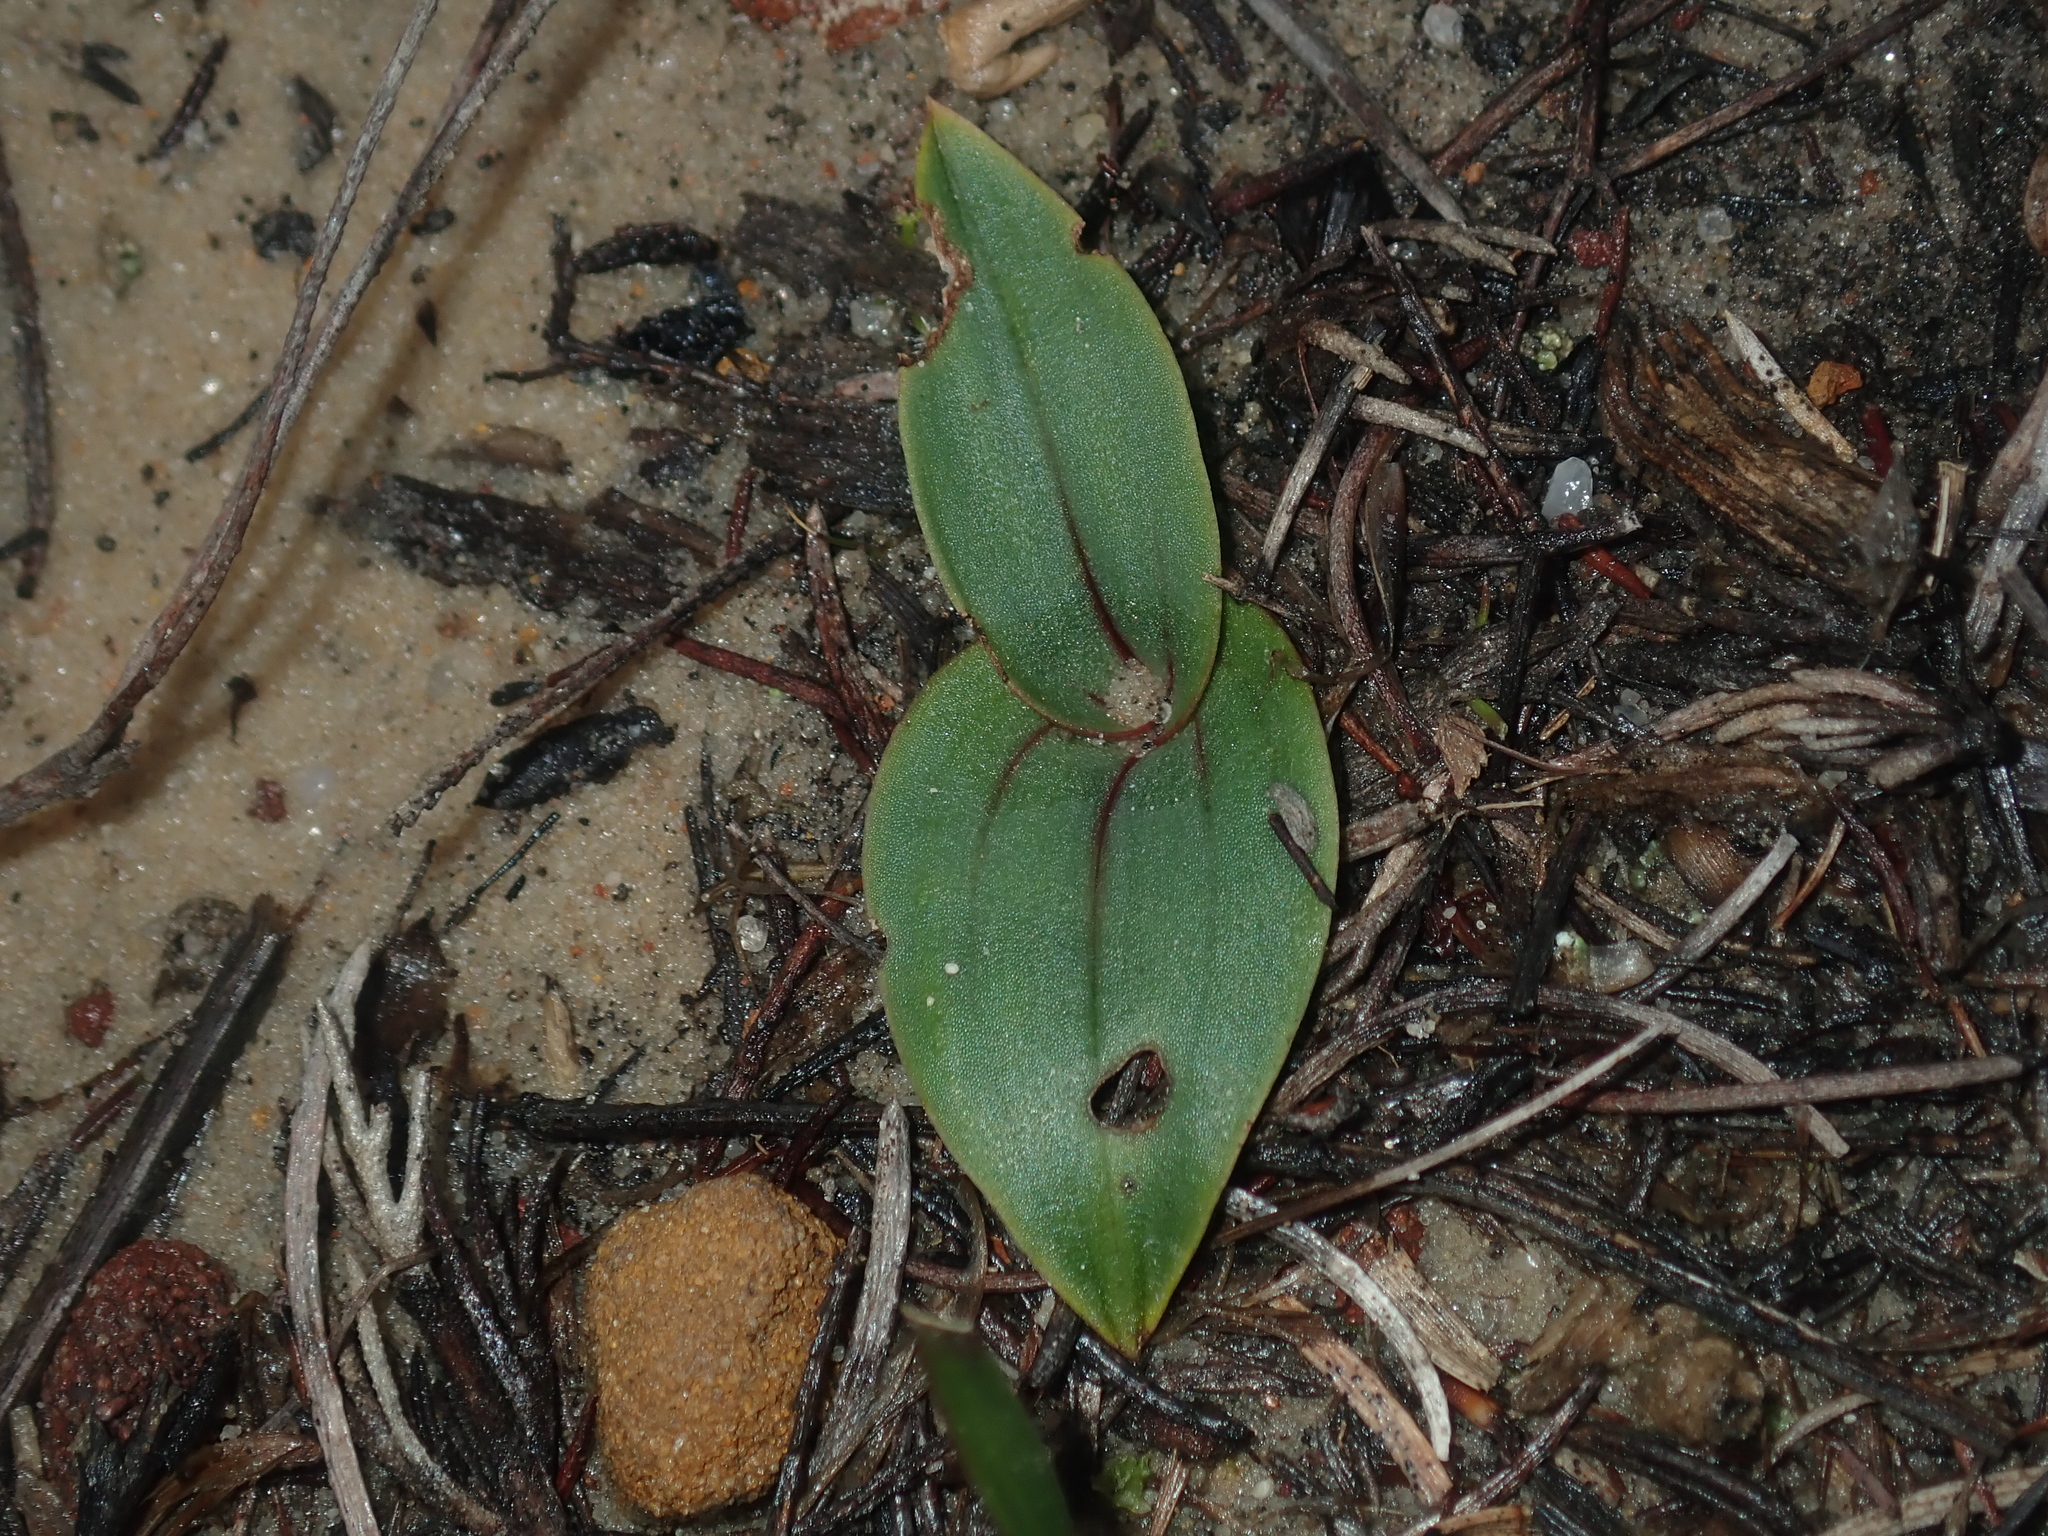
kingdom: Plantae
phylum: Tracheophyta
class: Liliopsida
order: Asparagales
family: Orchidaceae
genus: Leporella
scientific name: Leporella fimbriata
